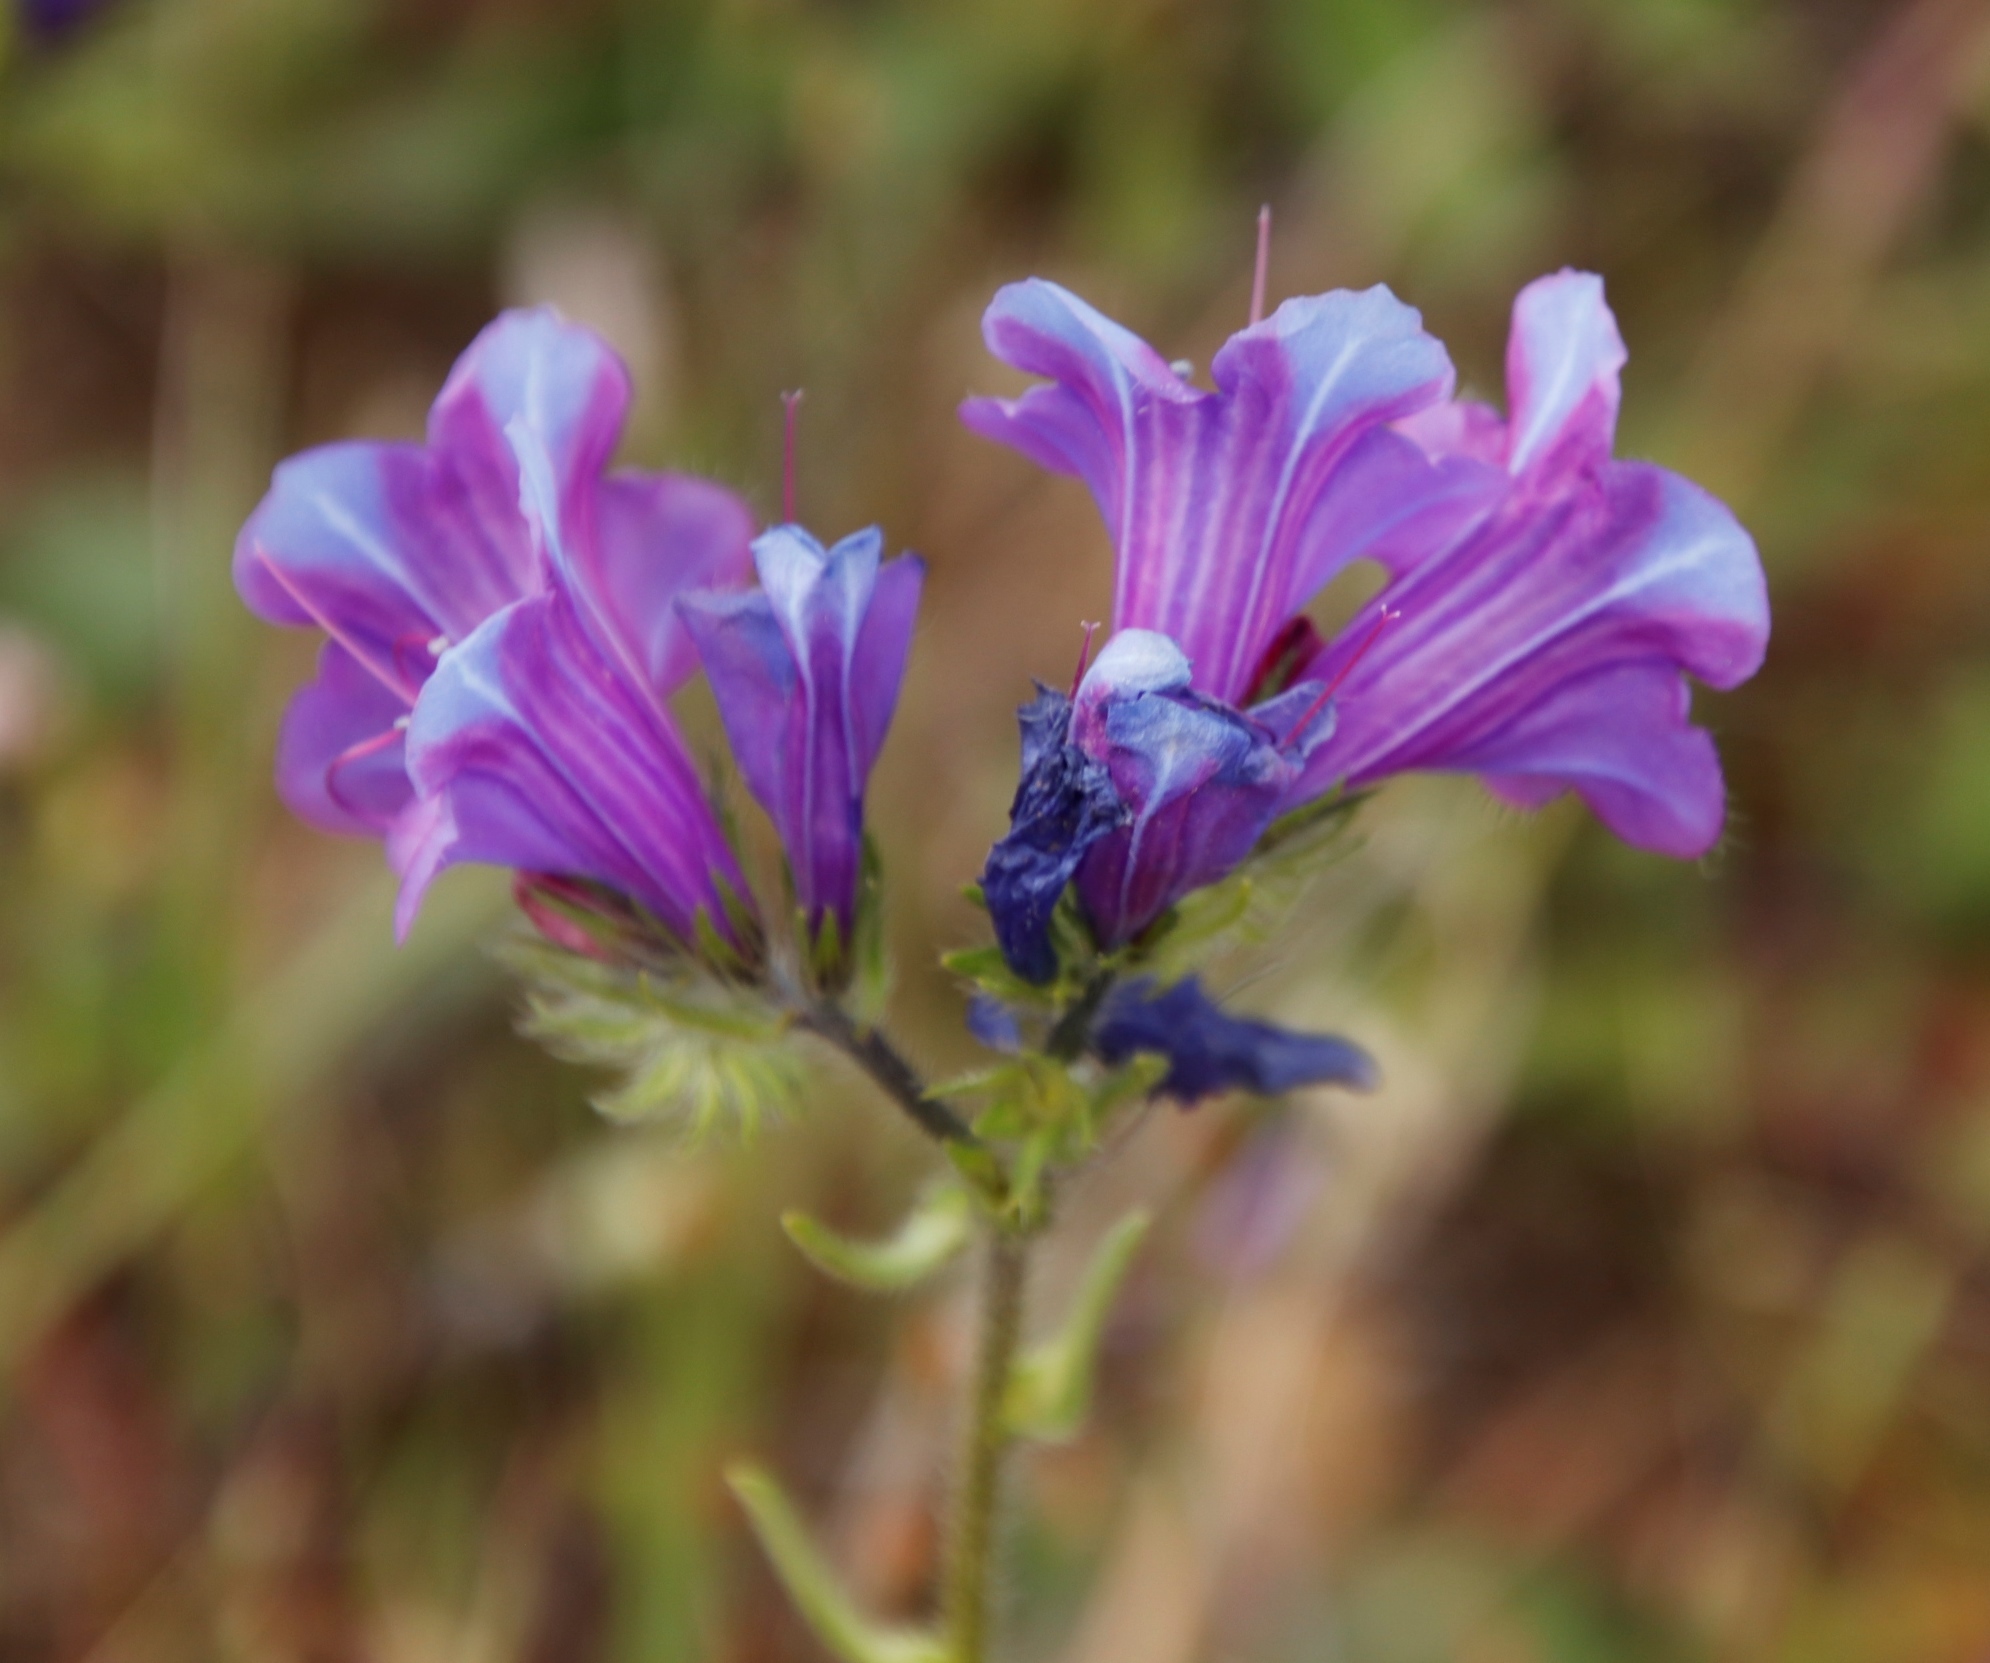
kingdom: Plantae
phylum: Tracheophyta
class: Magnoliopsida
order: Boraginales
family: Boraginaceae
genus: Echium
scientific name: Echium plantagineum
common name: Purple viper's-bugloss
